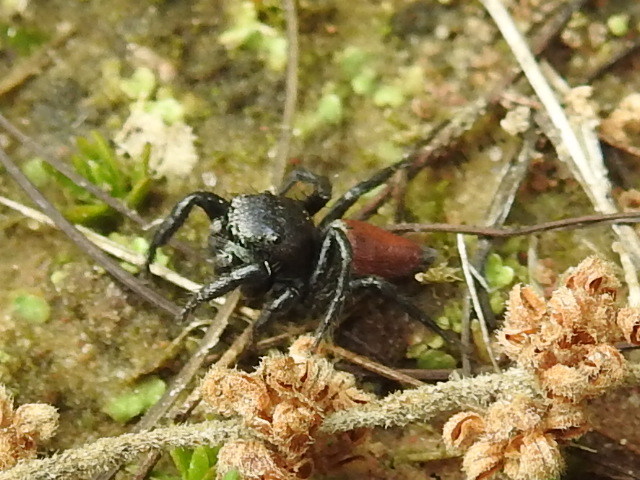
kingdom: Animalia
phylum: Arthropoda
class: Arachnida
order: Araneae
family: Salticidae
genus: Habronattus
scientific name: Habronattus decorus
